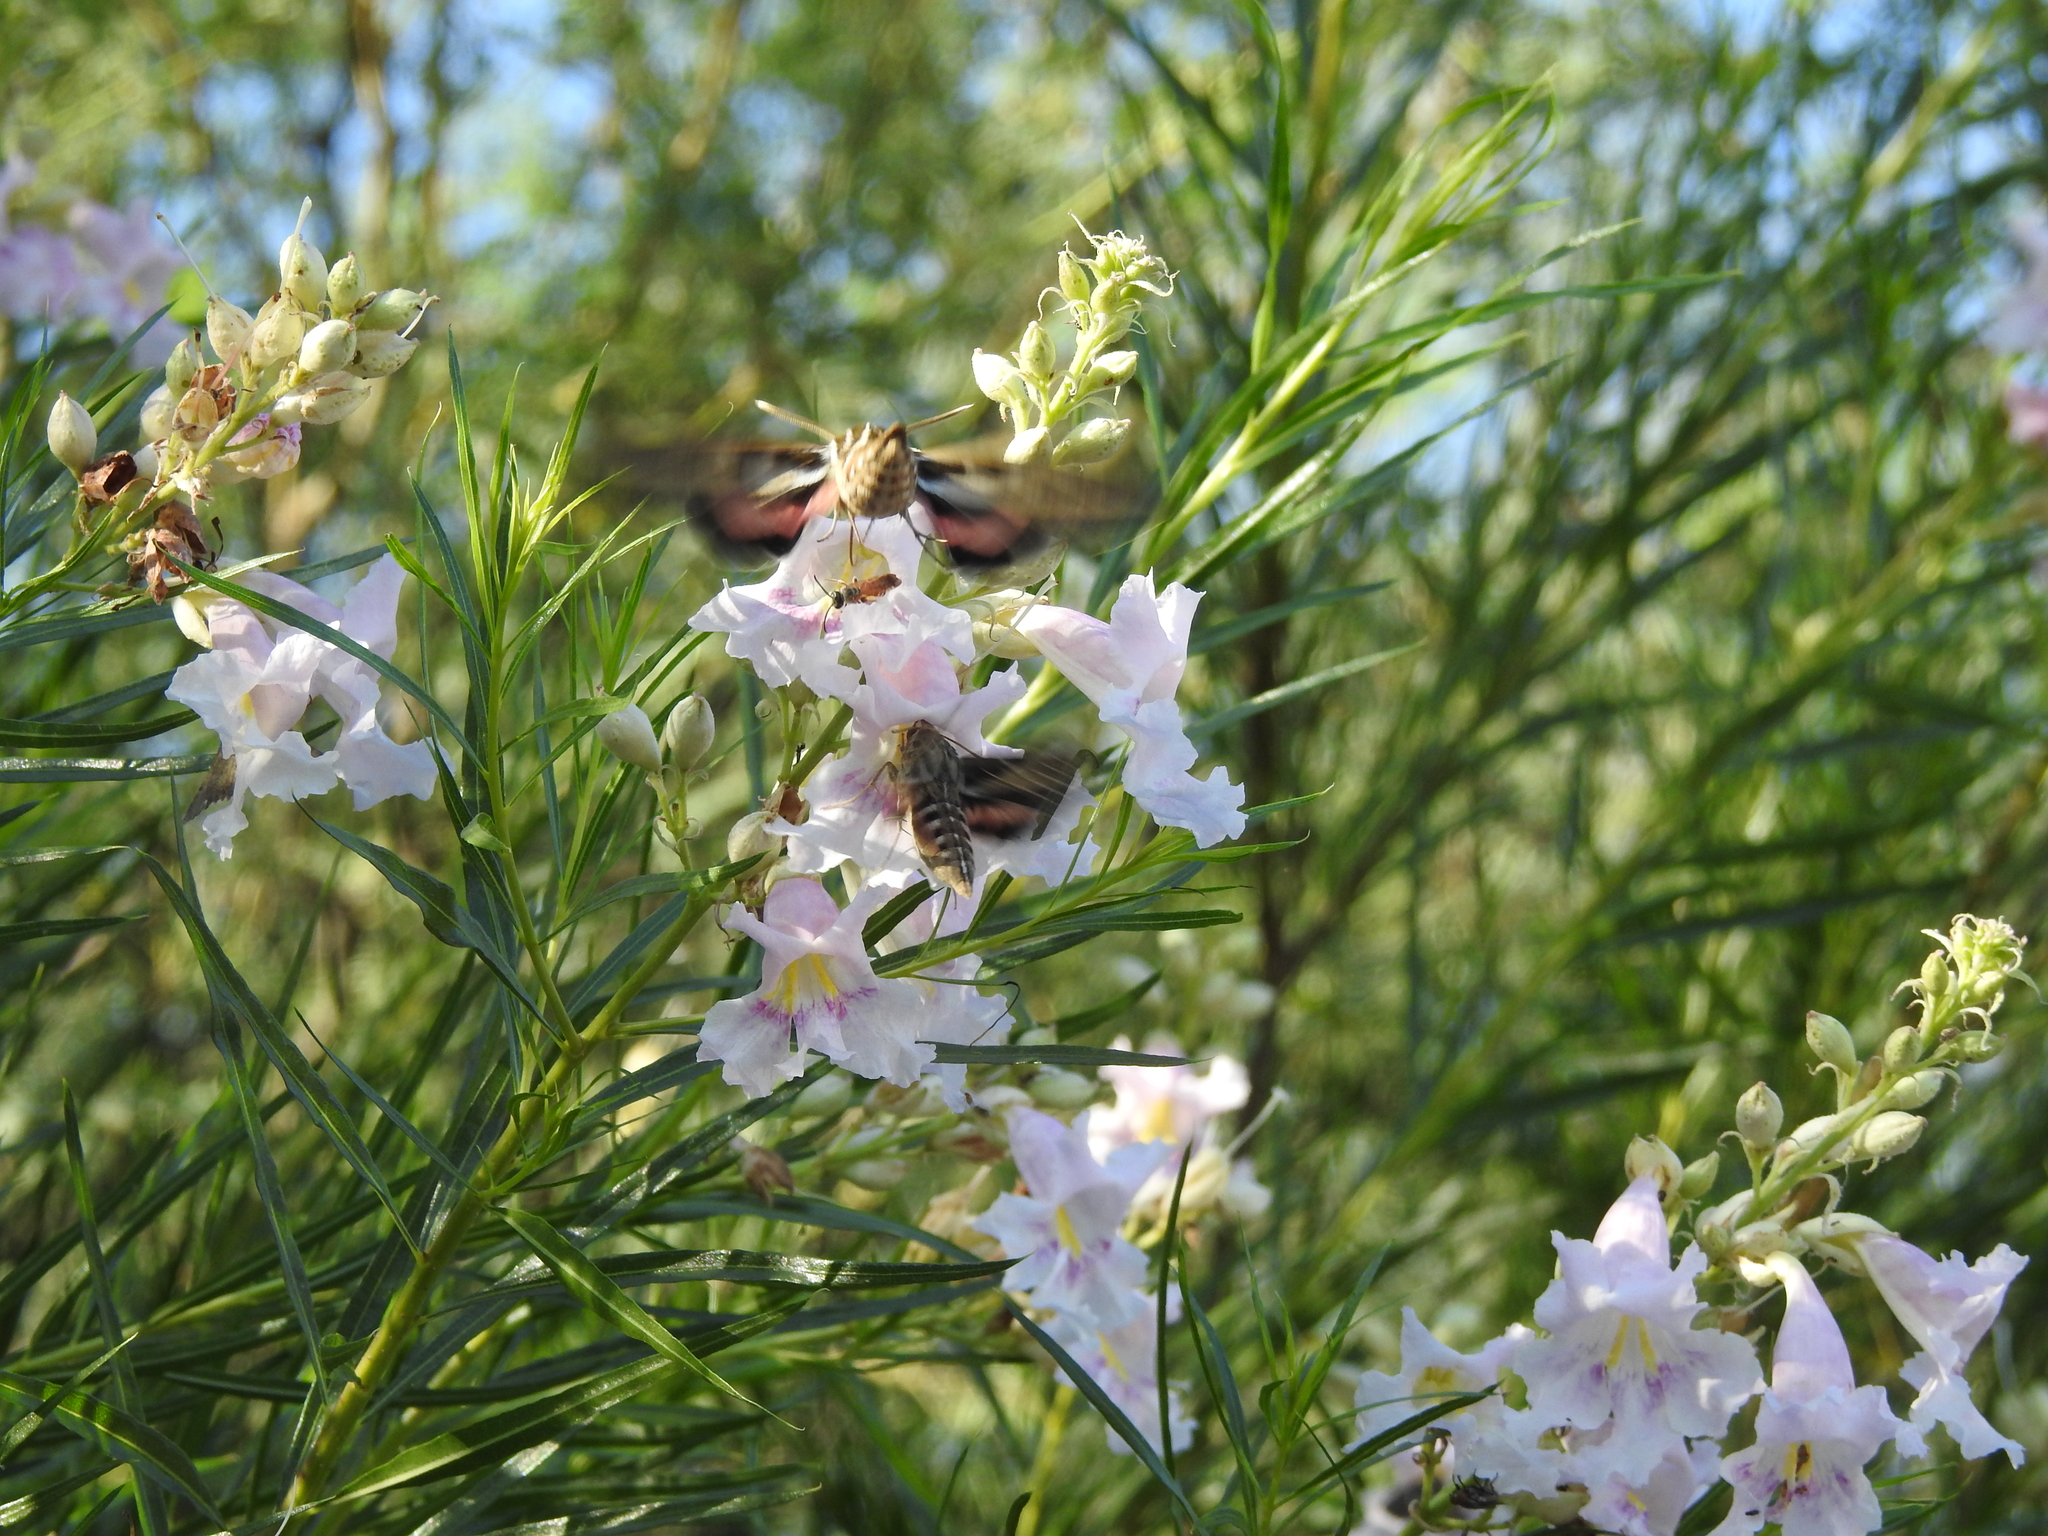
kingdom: Animalia
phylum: Arthropoda
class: Insecta
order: Lepidoptera
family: Sphingidae
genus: Hyles
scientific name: Hyles lineata
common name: White-lined sphinx
